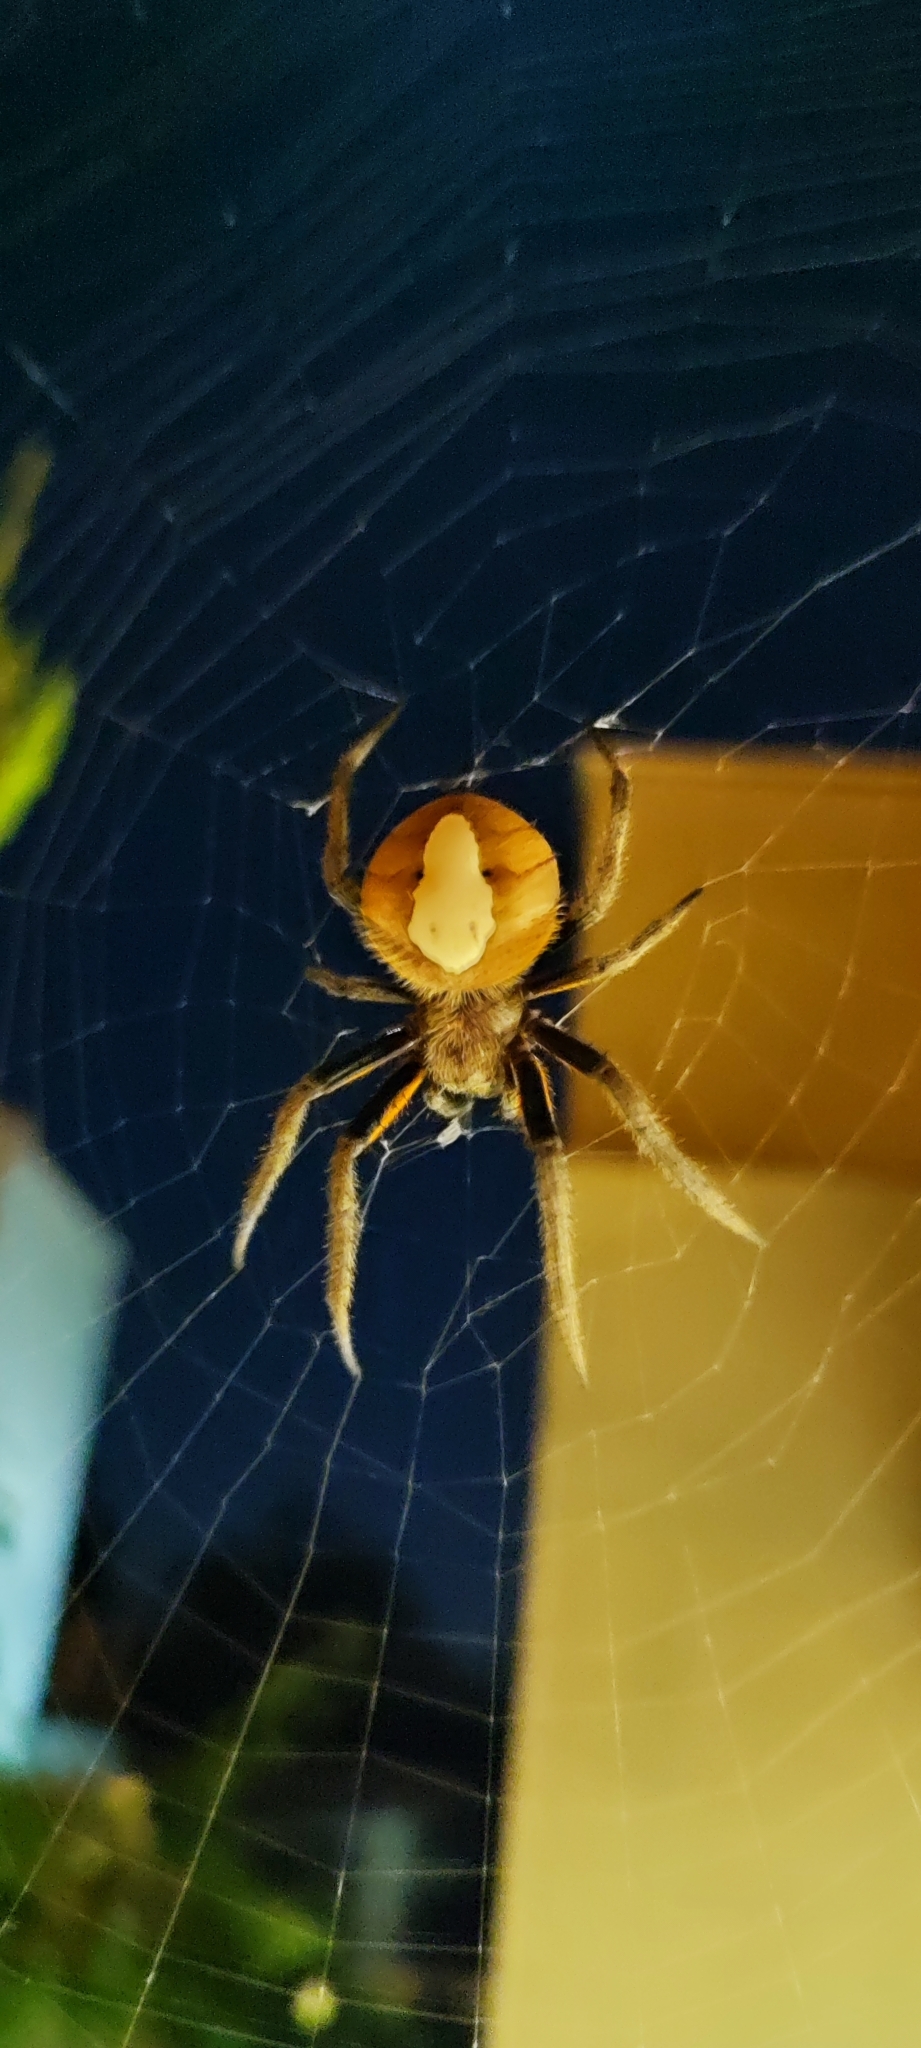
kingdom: Animalia
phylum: Arthropoda
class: Arachnida
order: Araneae
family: Araneidae
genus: Eriophora
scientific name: Eriophora ravilla
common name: Orb weavers
